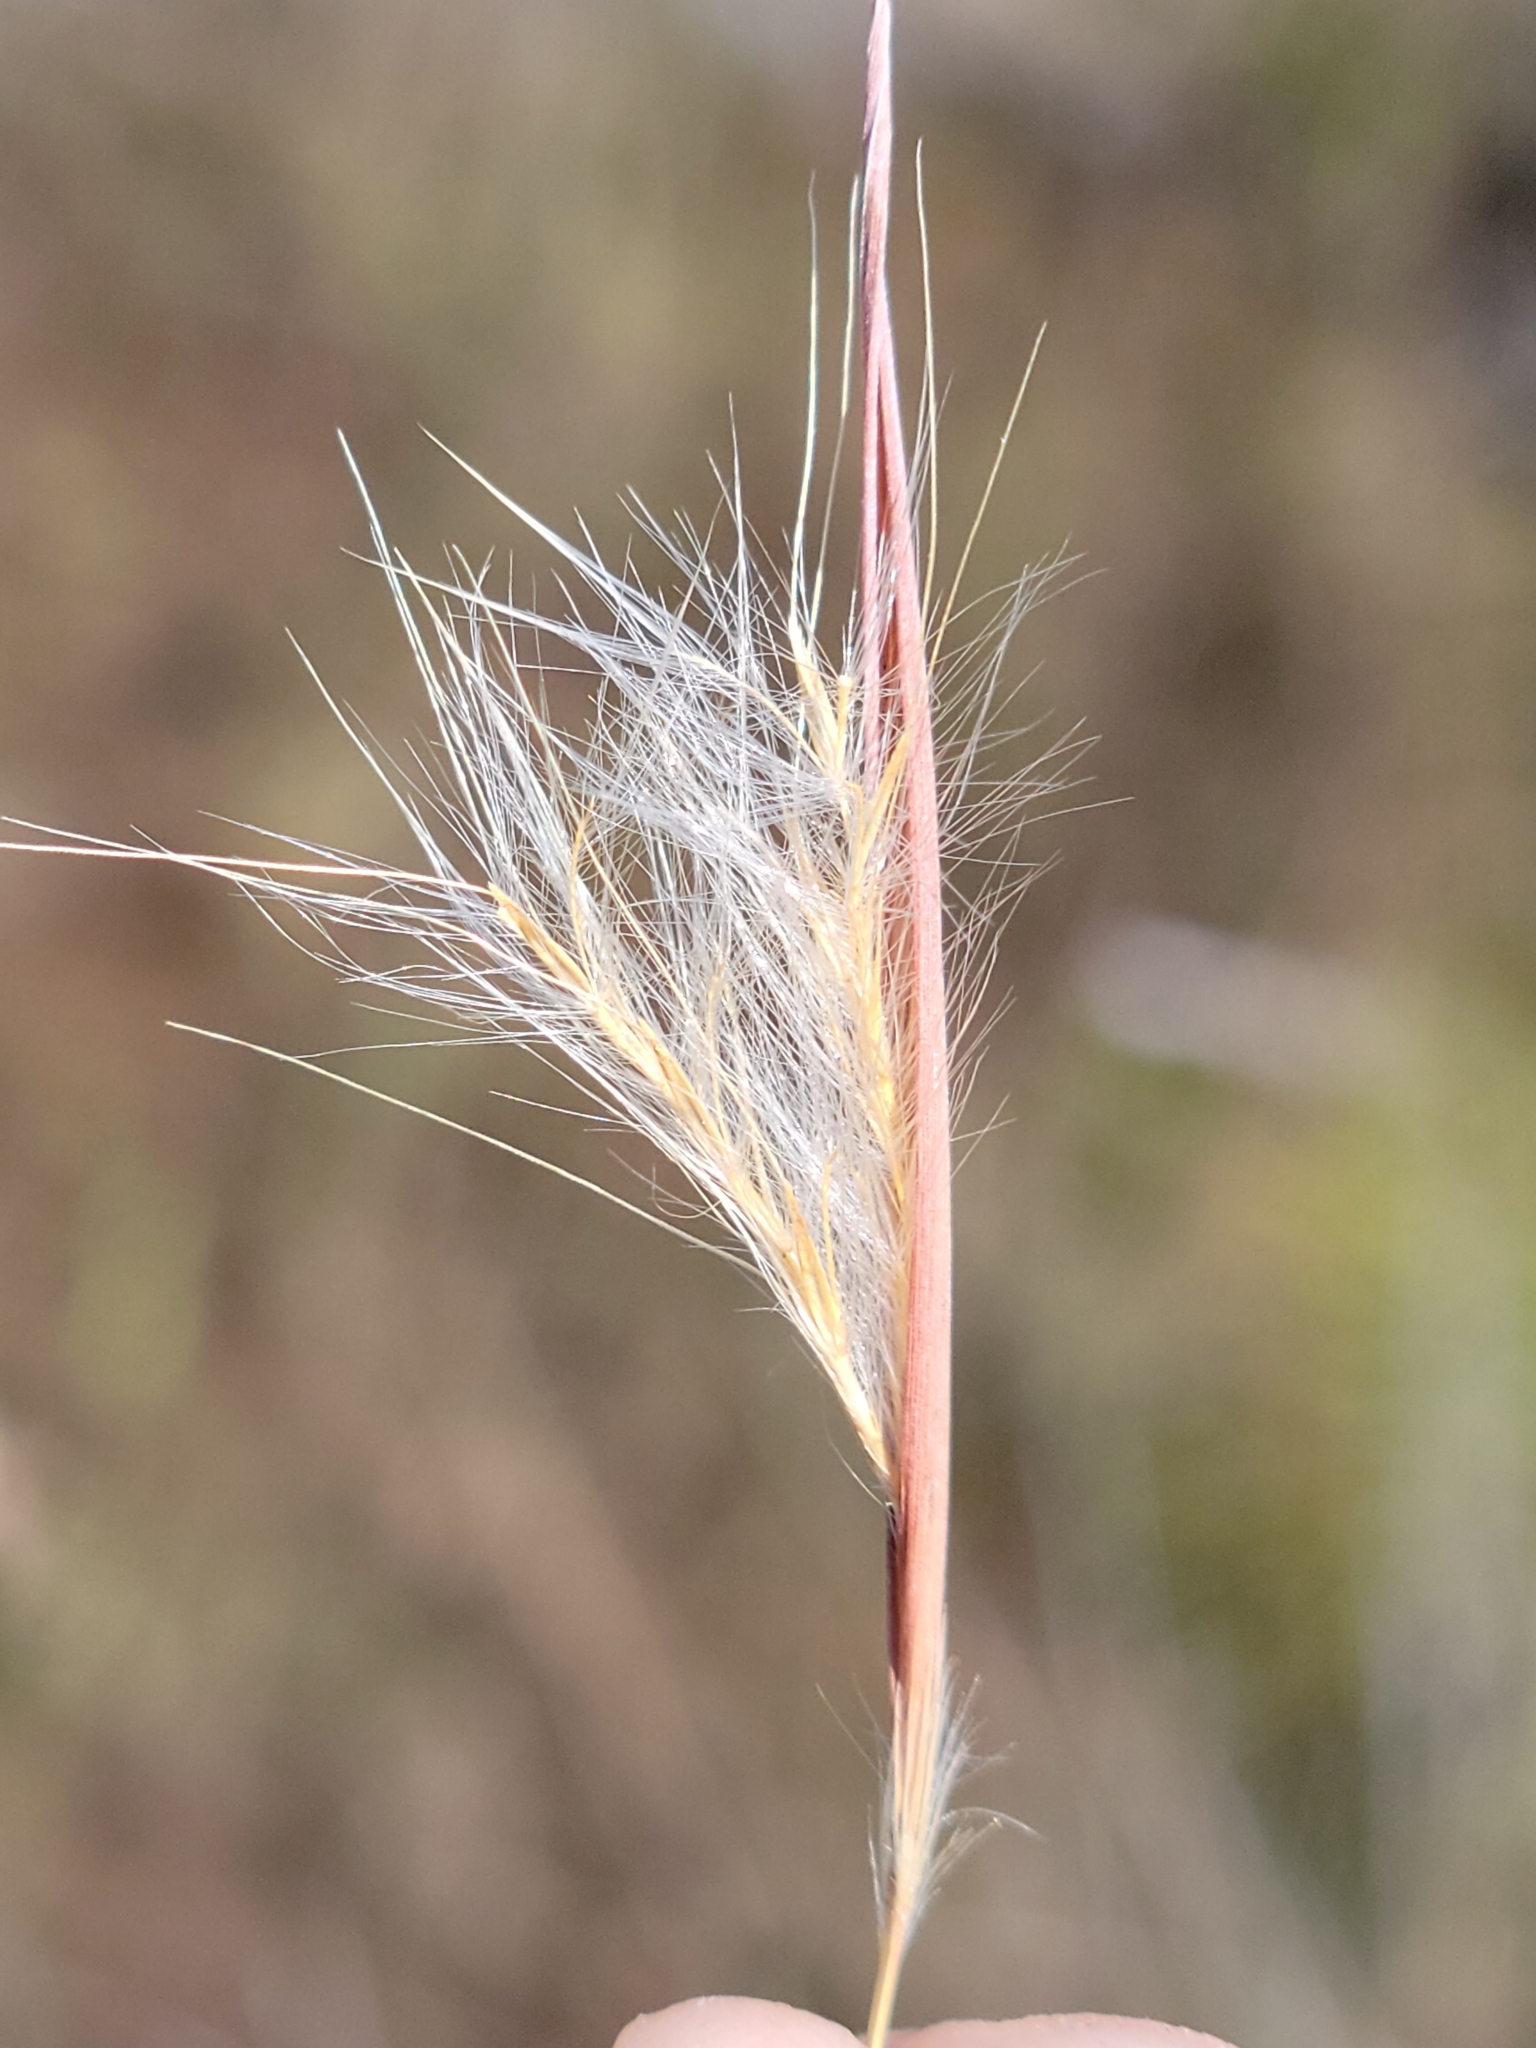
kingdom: Plantae
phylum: Tracheophyta
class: Liliopsida
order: Poales
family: Poaceae
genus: Andropogon
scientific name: Andropogon dealbatus
